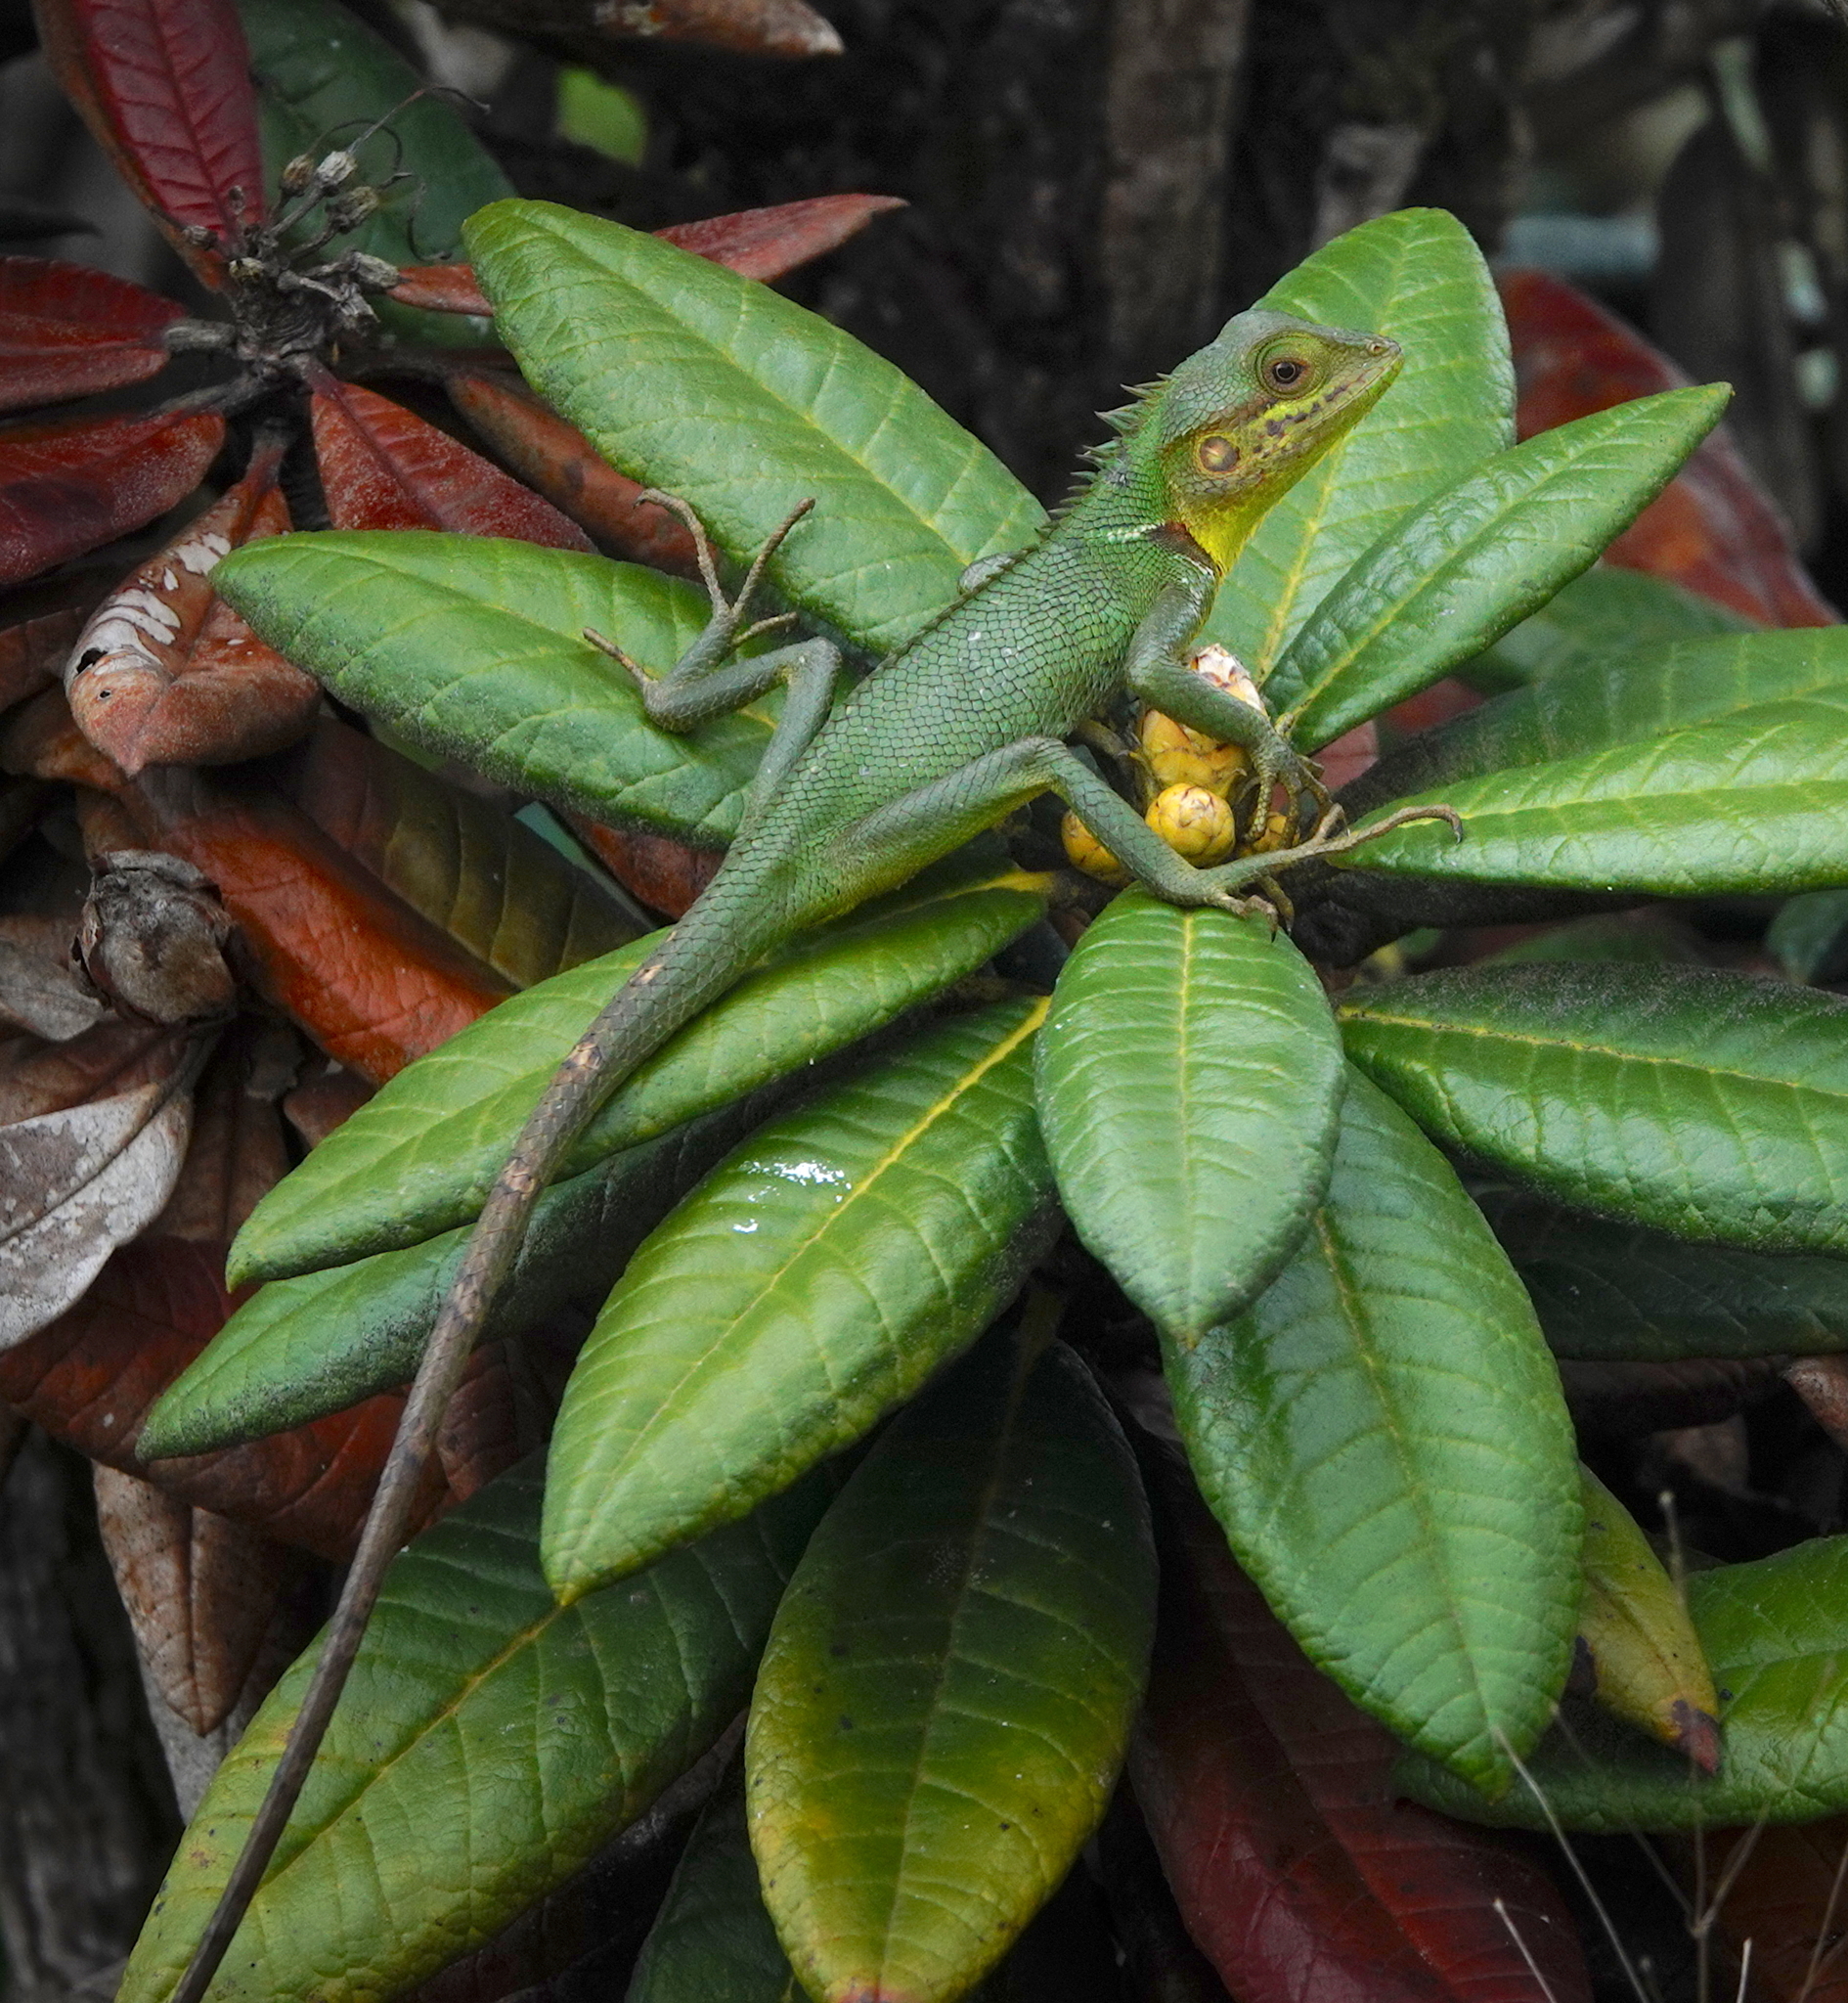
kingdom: Animalia
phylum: Chordata
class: Squamata
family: Agamidae
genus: Calotes
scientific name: Calotes nigrilabris
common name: Black-cheek lizard
